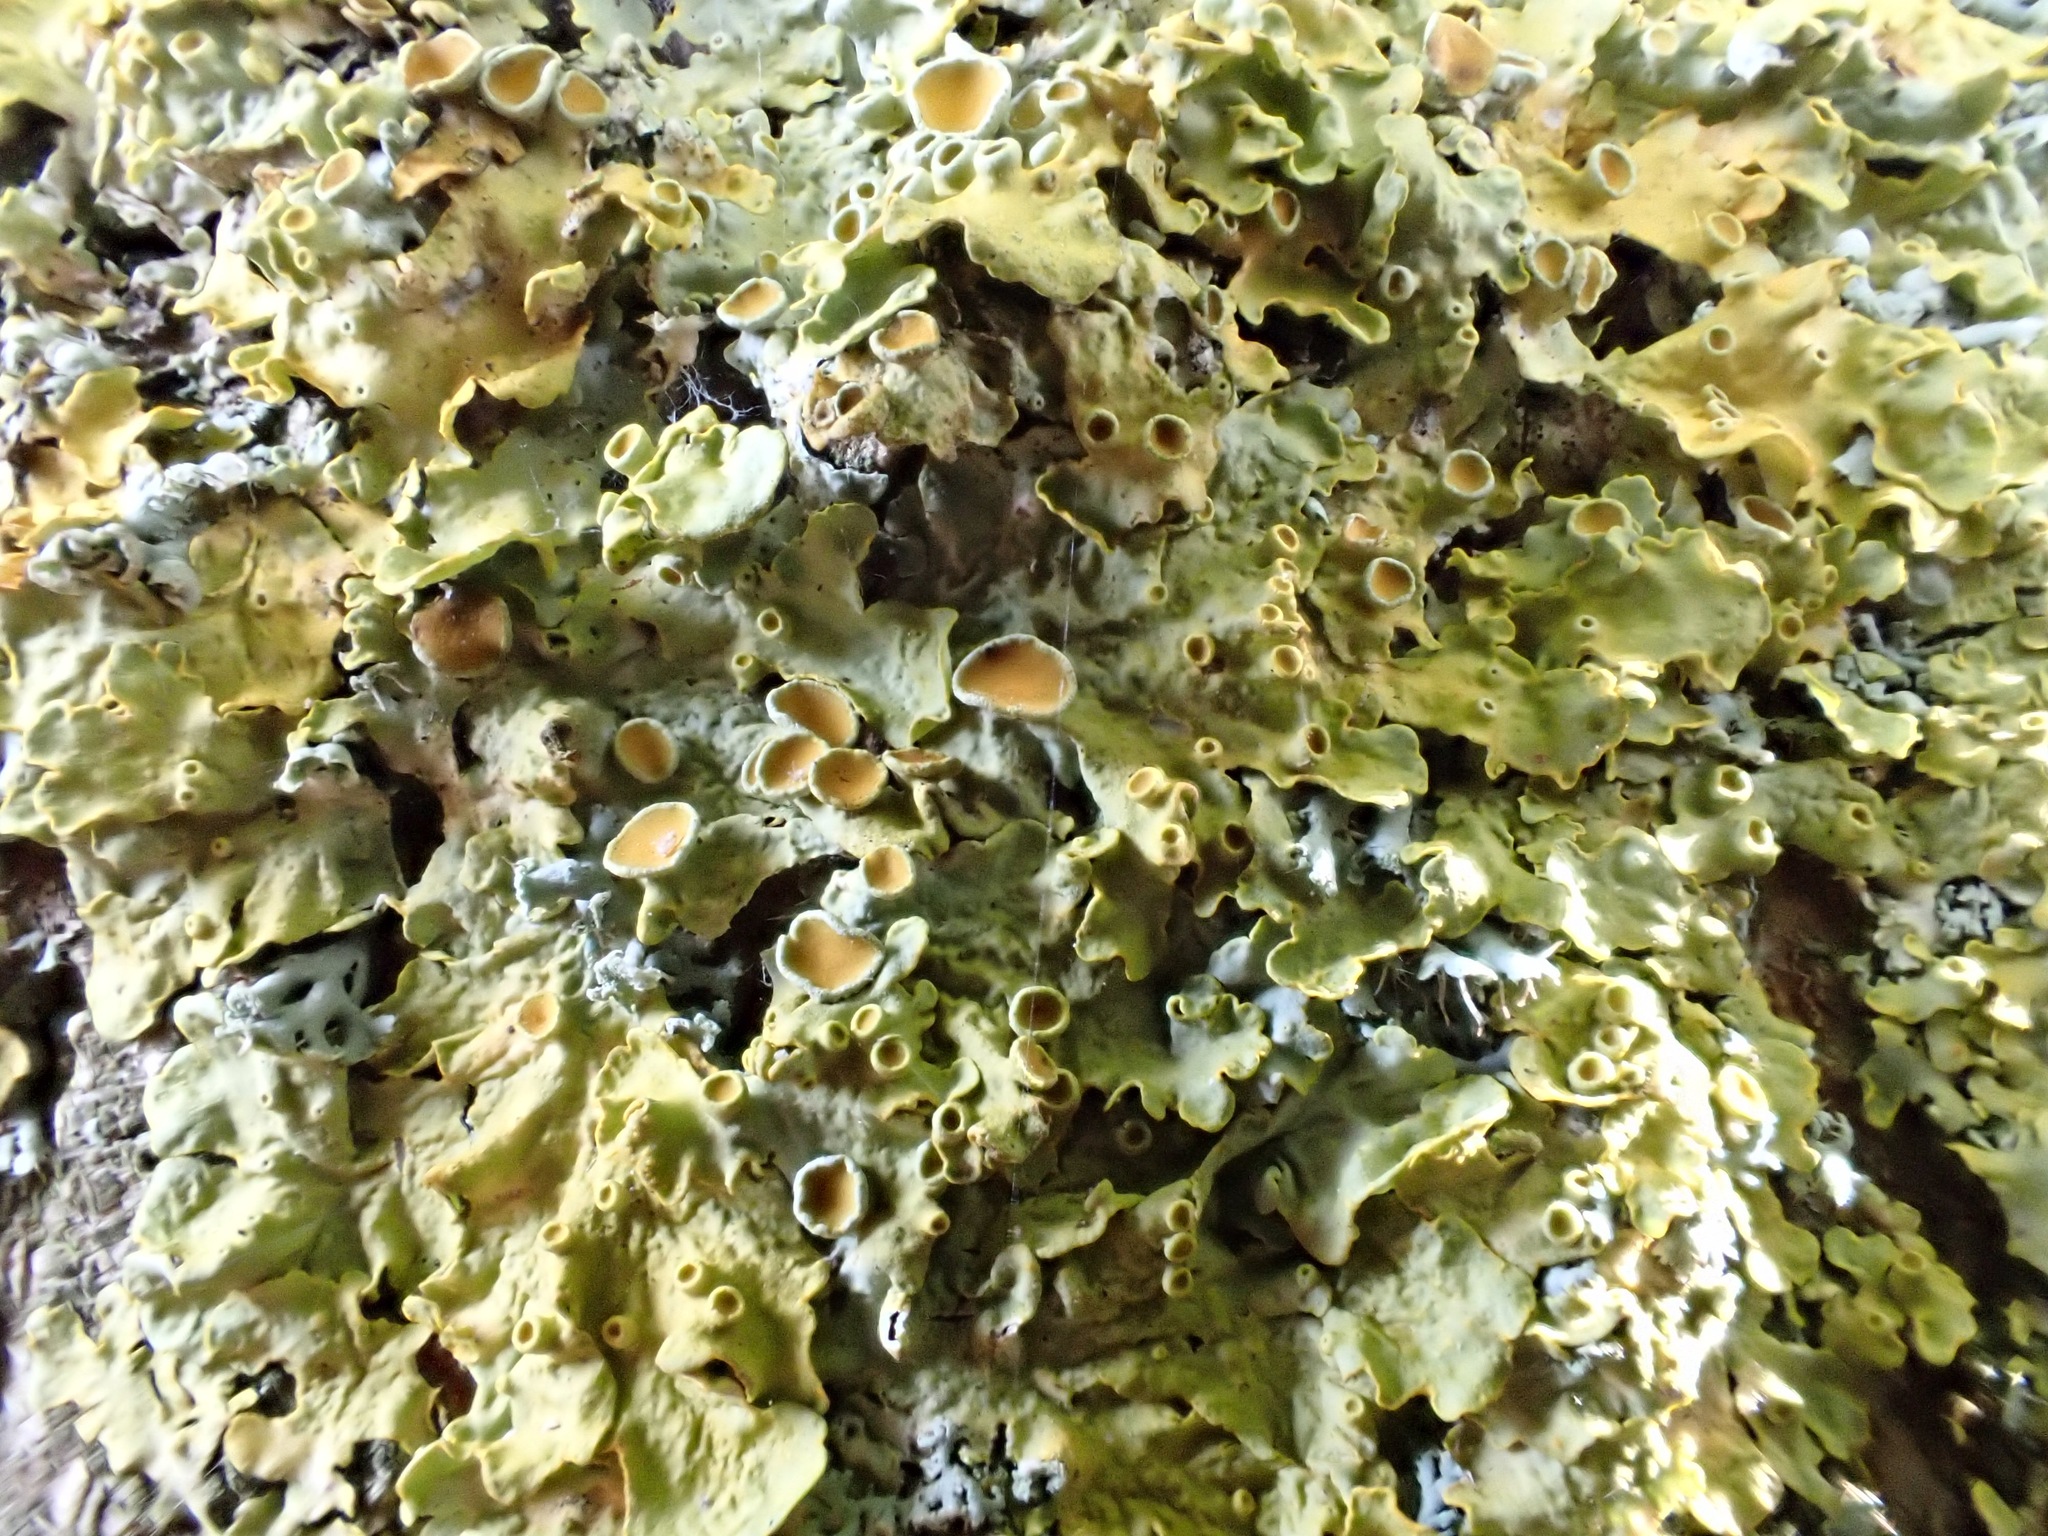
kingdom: Fungi
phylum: Ascomycota
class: Lecanoromycetes
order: Teloschistales
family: Teloschistaceae
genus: Xanthoria
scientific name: Xanthoria parietina
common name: Common orange lichen
